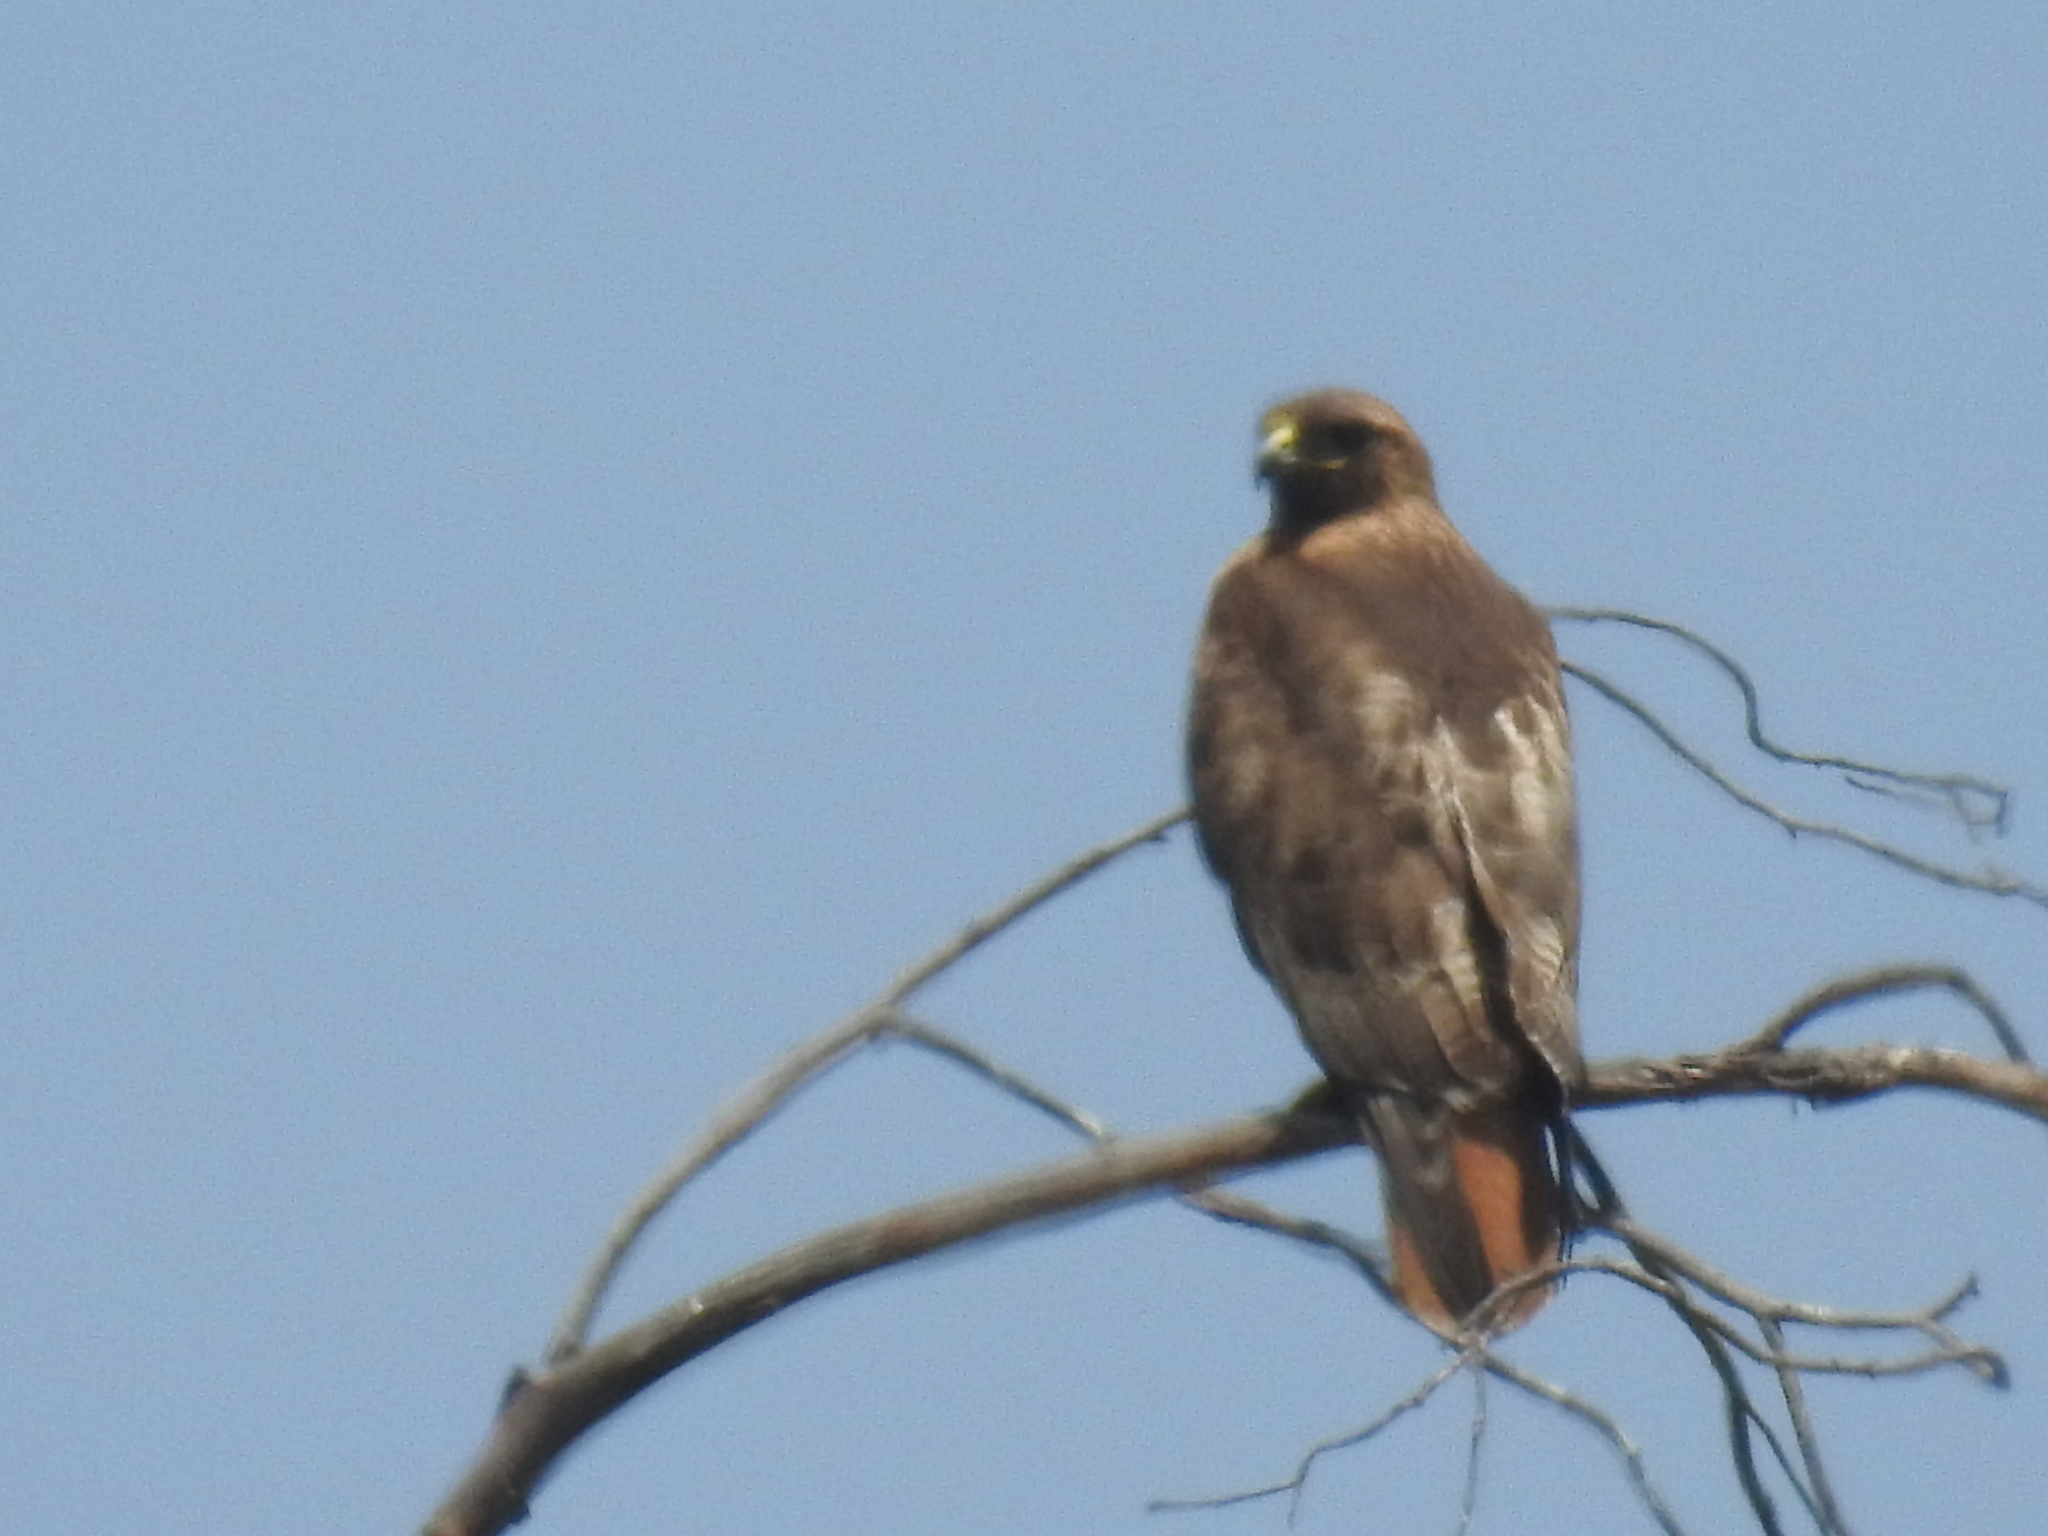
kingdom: Animalia
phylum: Chordata
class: Aves
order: Accipitriformes
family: Accipitridae
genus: Buteo
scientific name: Buteo jamaicensis
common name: Red-tailed hawk
